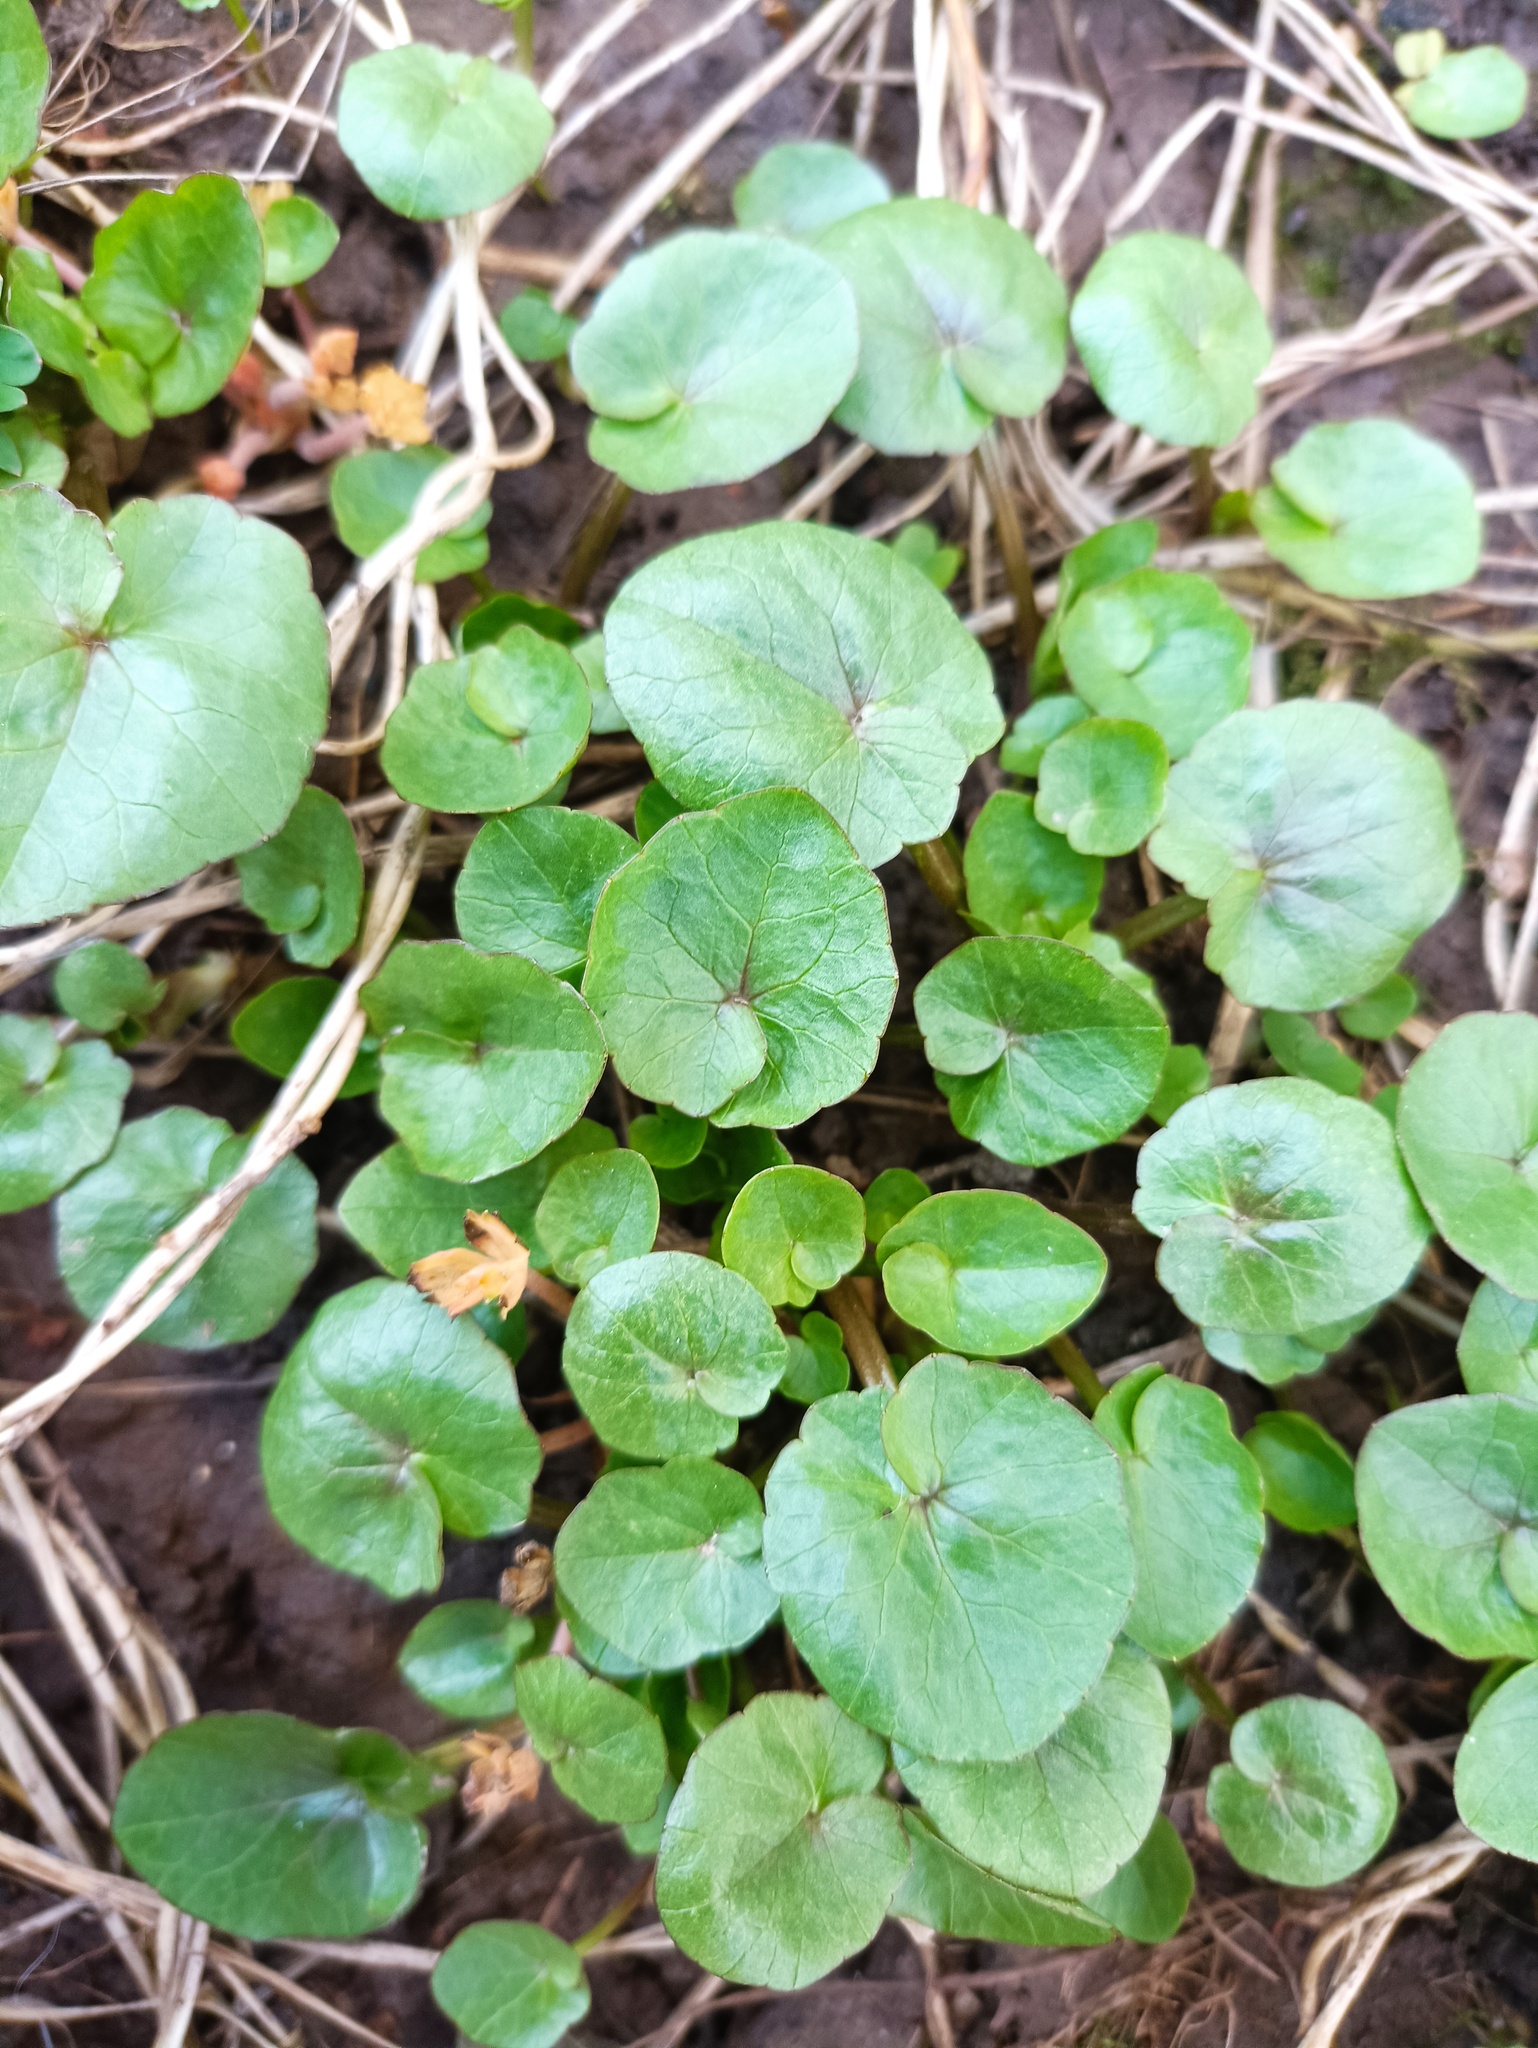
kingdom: Plantae
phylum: Tracheophyta
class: Magnoliopsida
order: Ranunculales
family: Ranunculaceae
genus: Ficaria
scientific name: Ficaria verna
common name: Lesser celandine
